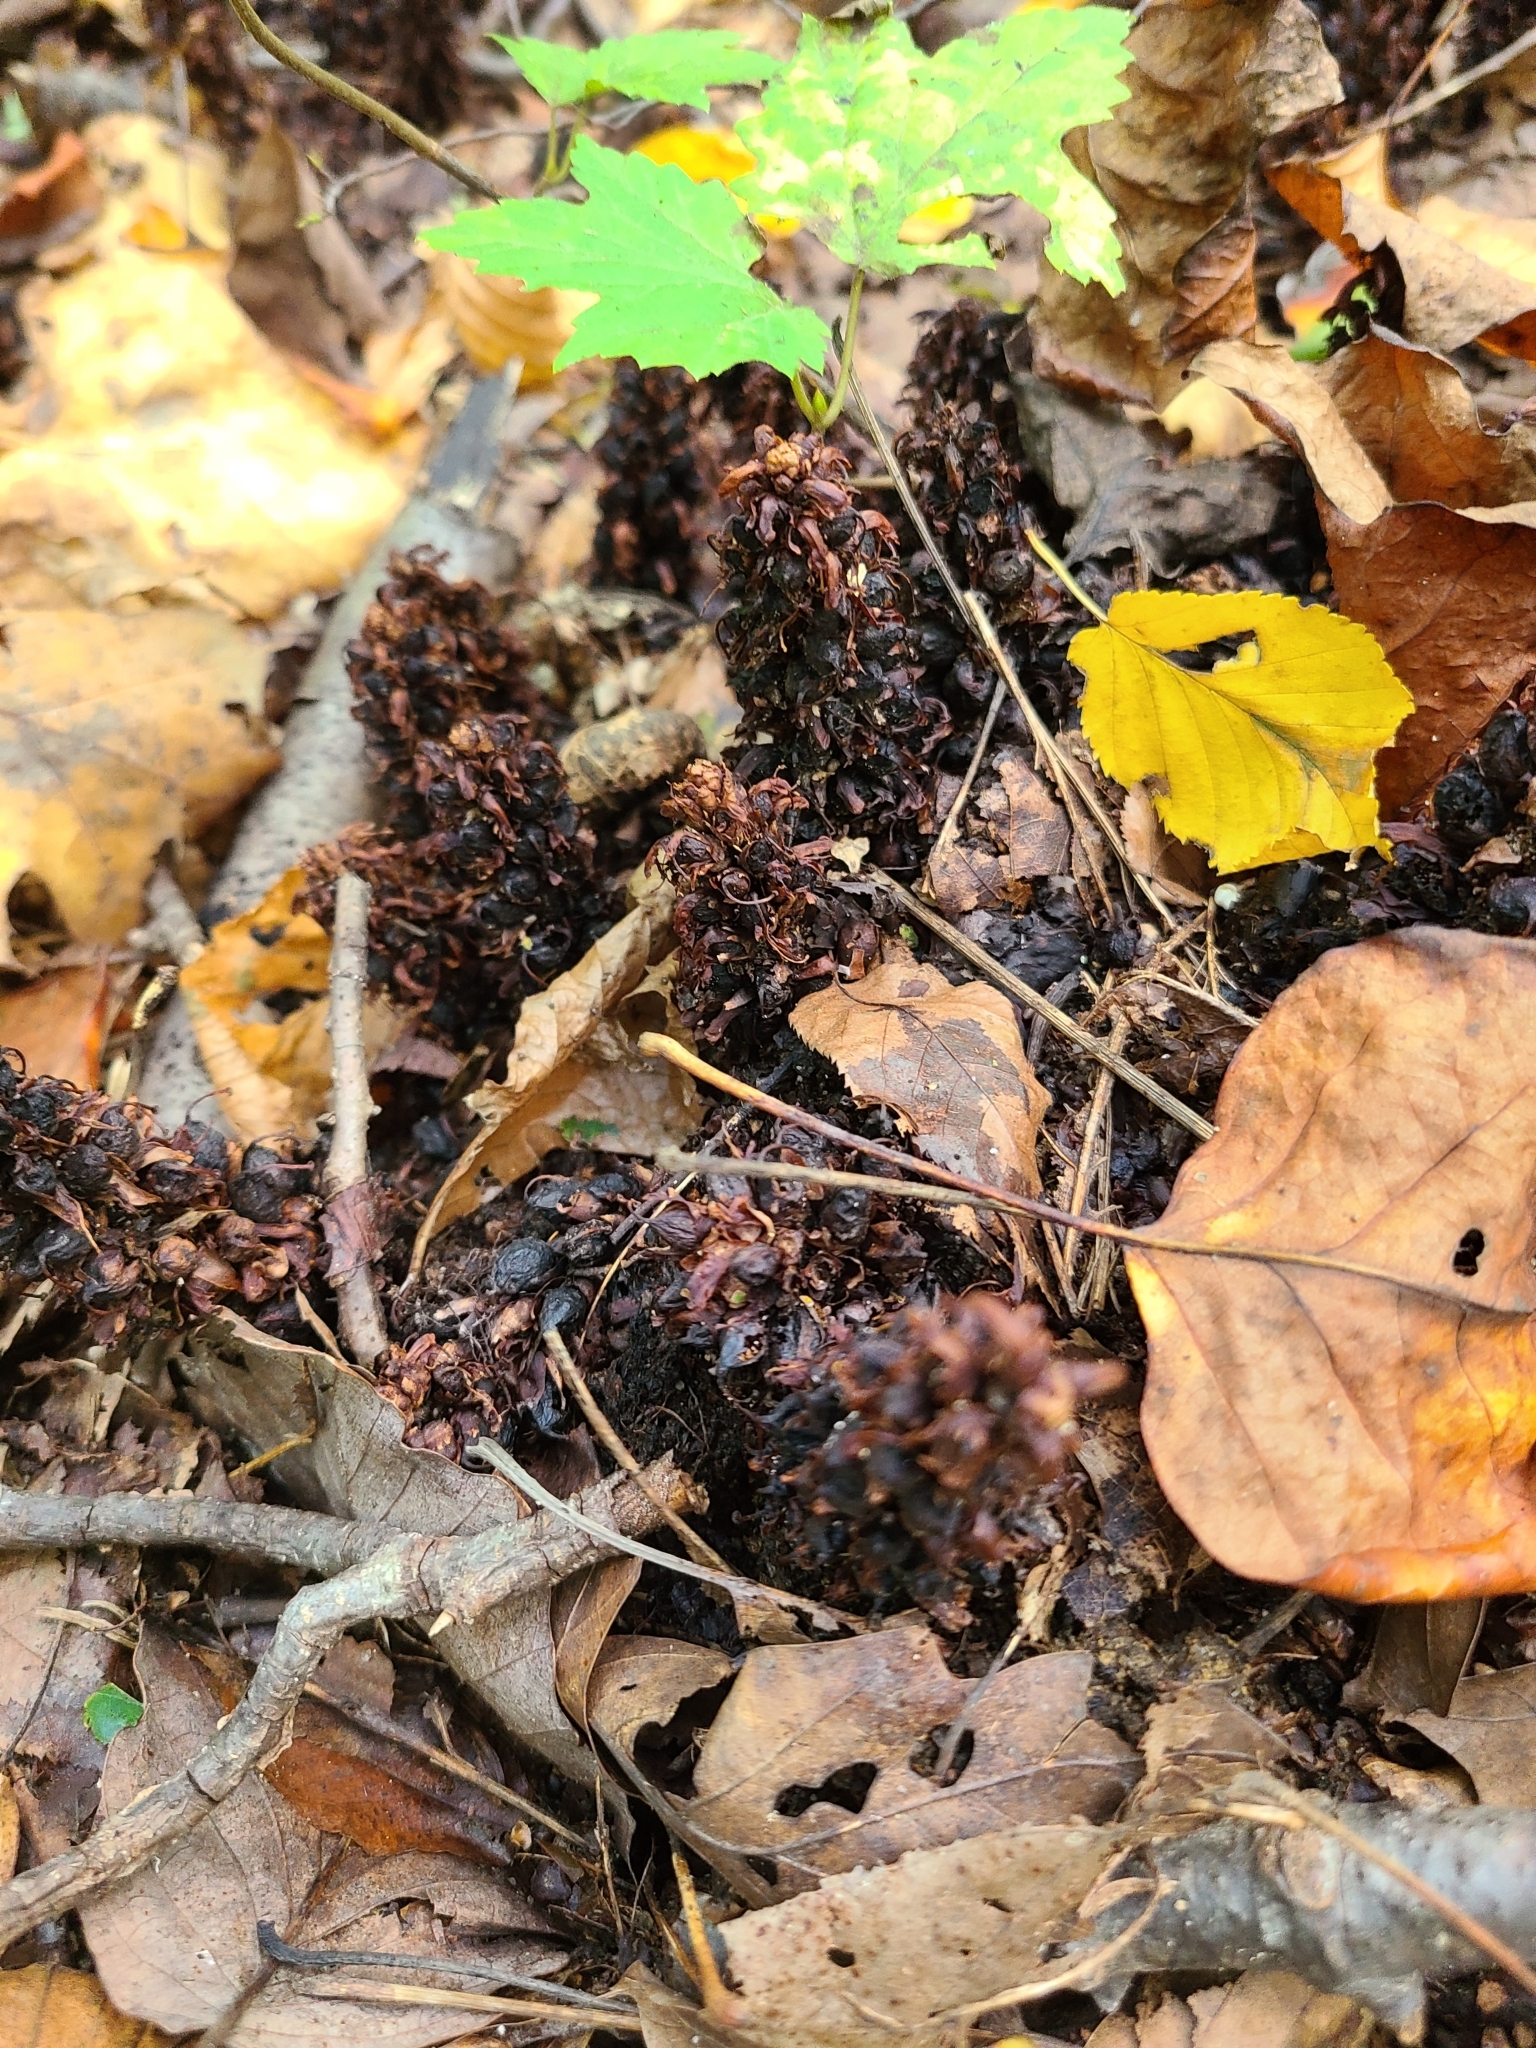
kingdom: Plantae
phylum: Tracheophyta
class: Magnoliopsida
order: Lamiales
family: Orobanchaceae
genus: Conopholis
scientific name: Conopholis americana
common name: American cancer-root
